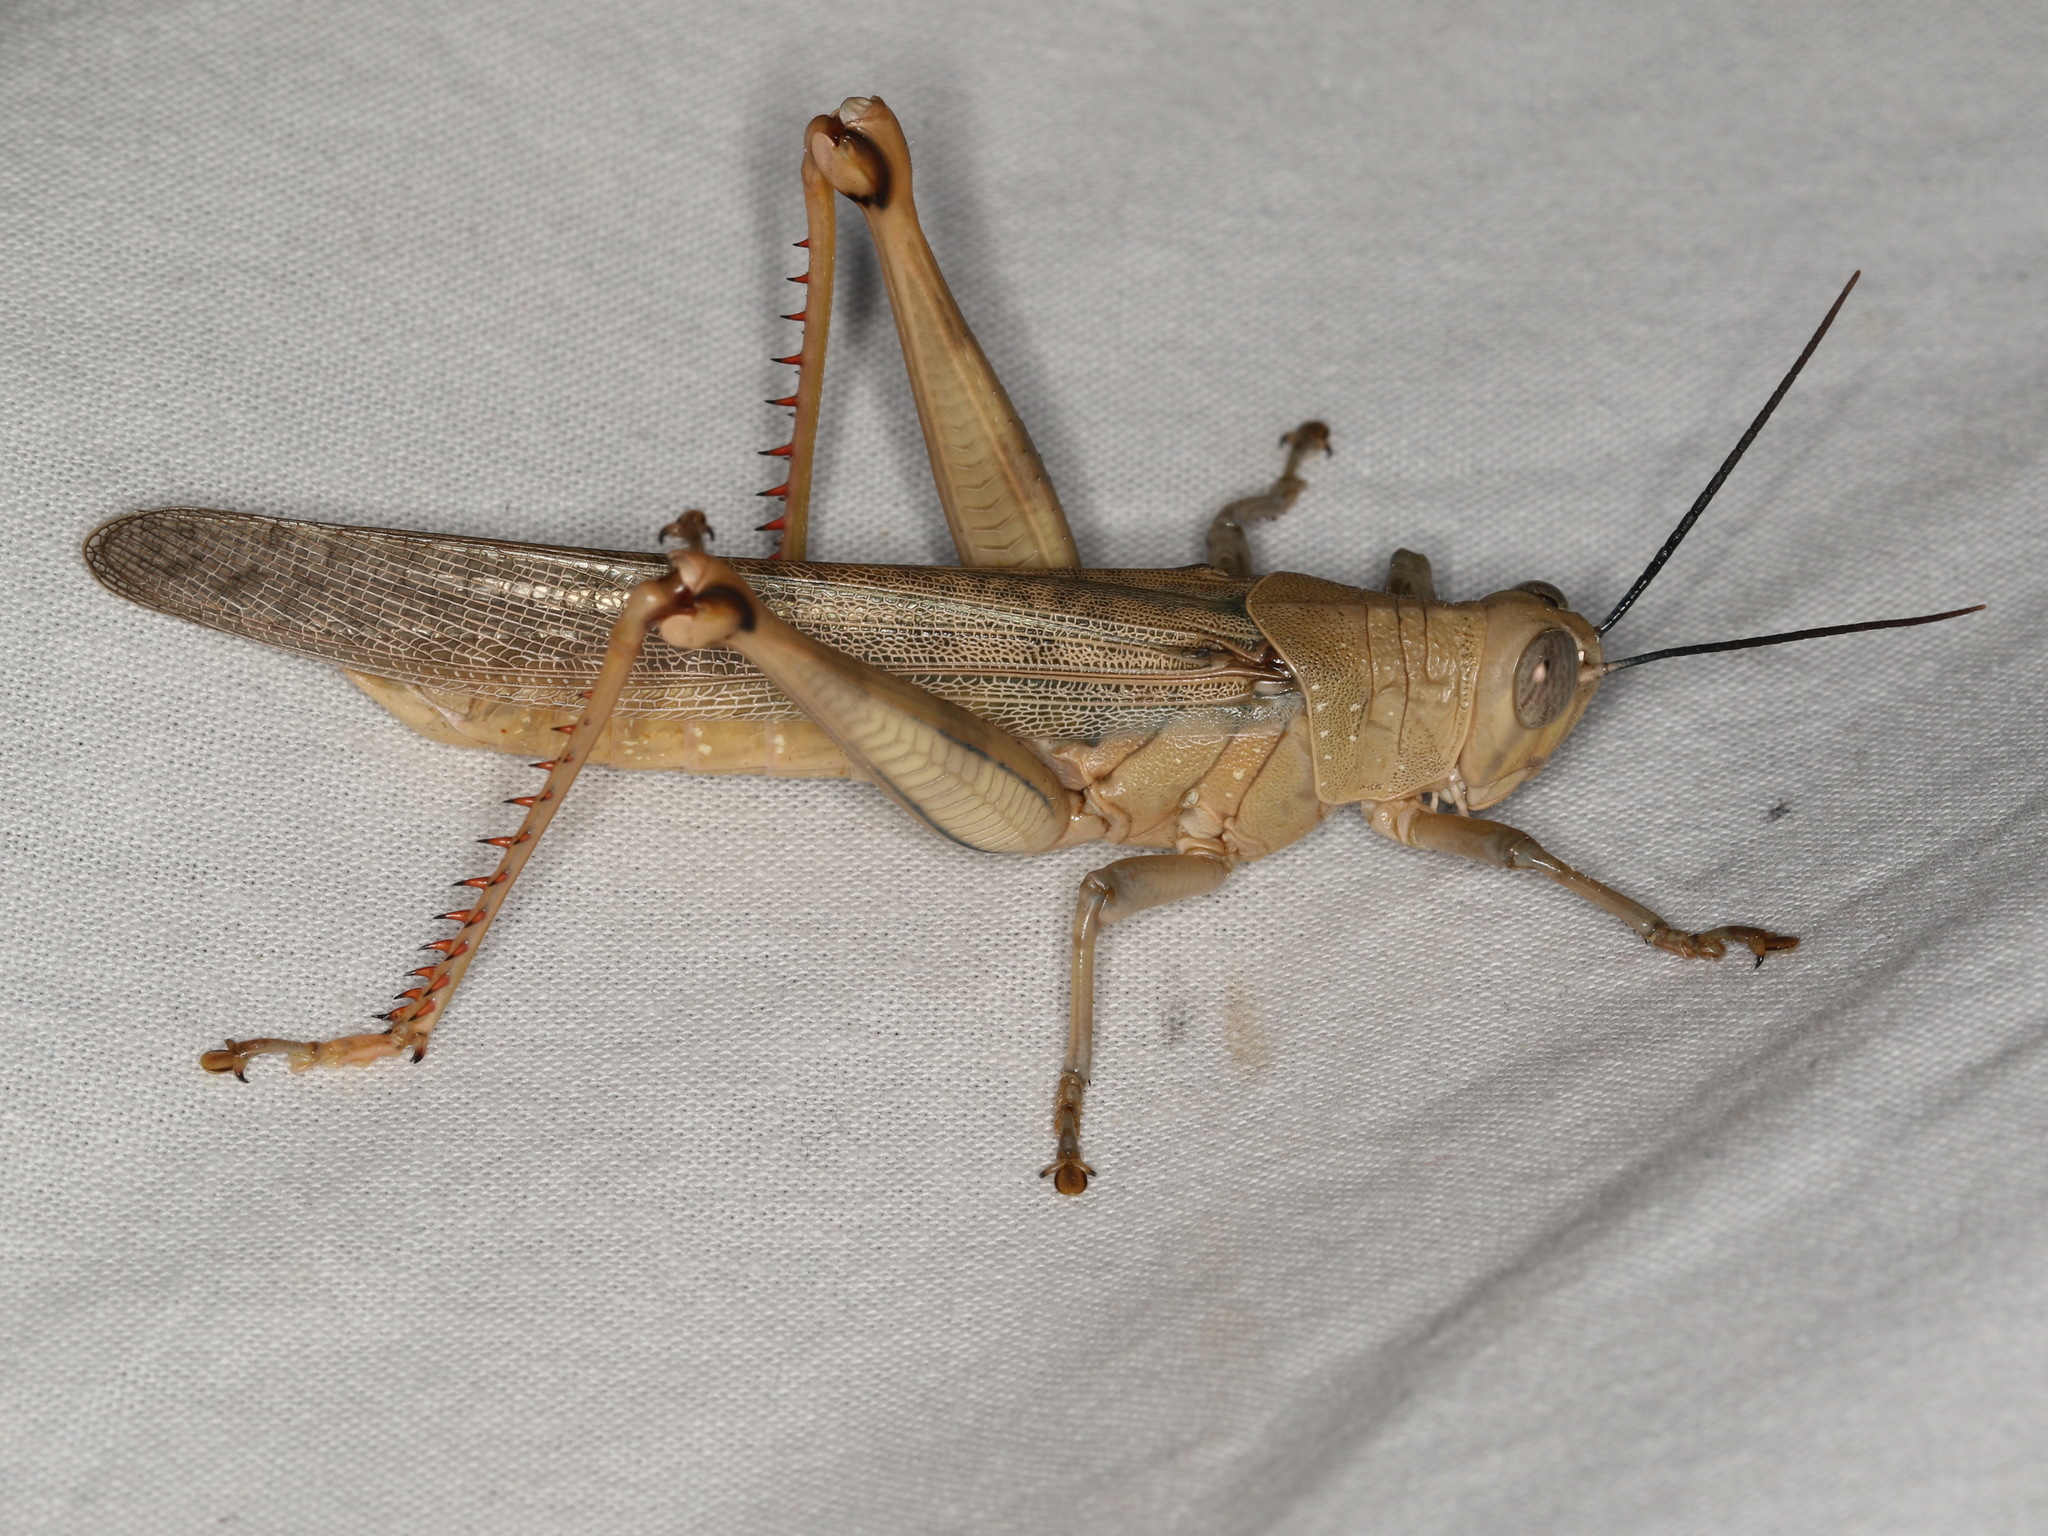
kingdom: Animalia
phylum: Arthropoda
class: Insecta
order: Orthoptera
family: Acrididae
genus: Valanga
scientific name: Valanga irregularis
